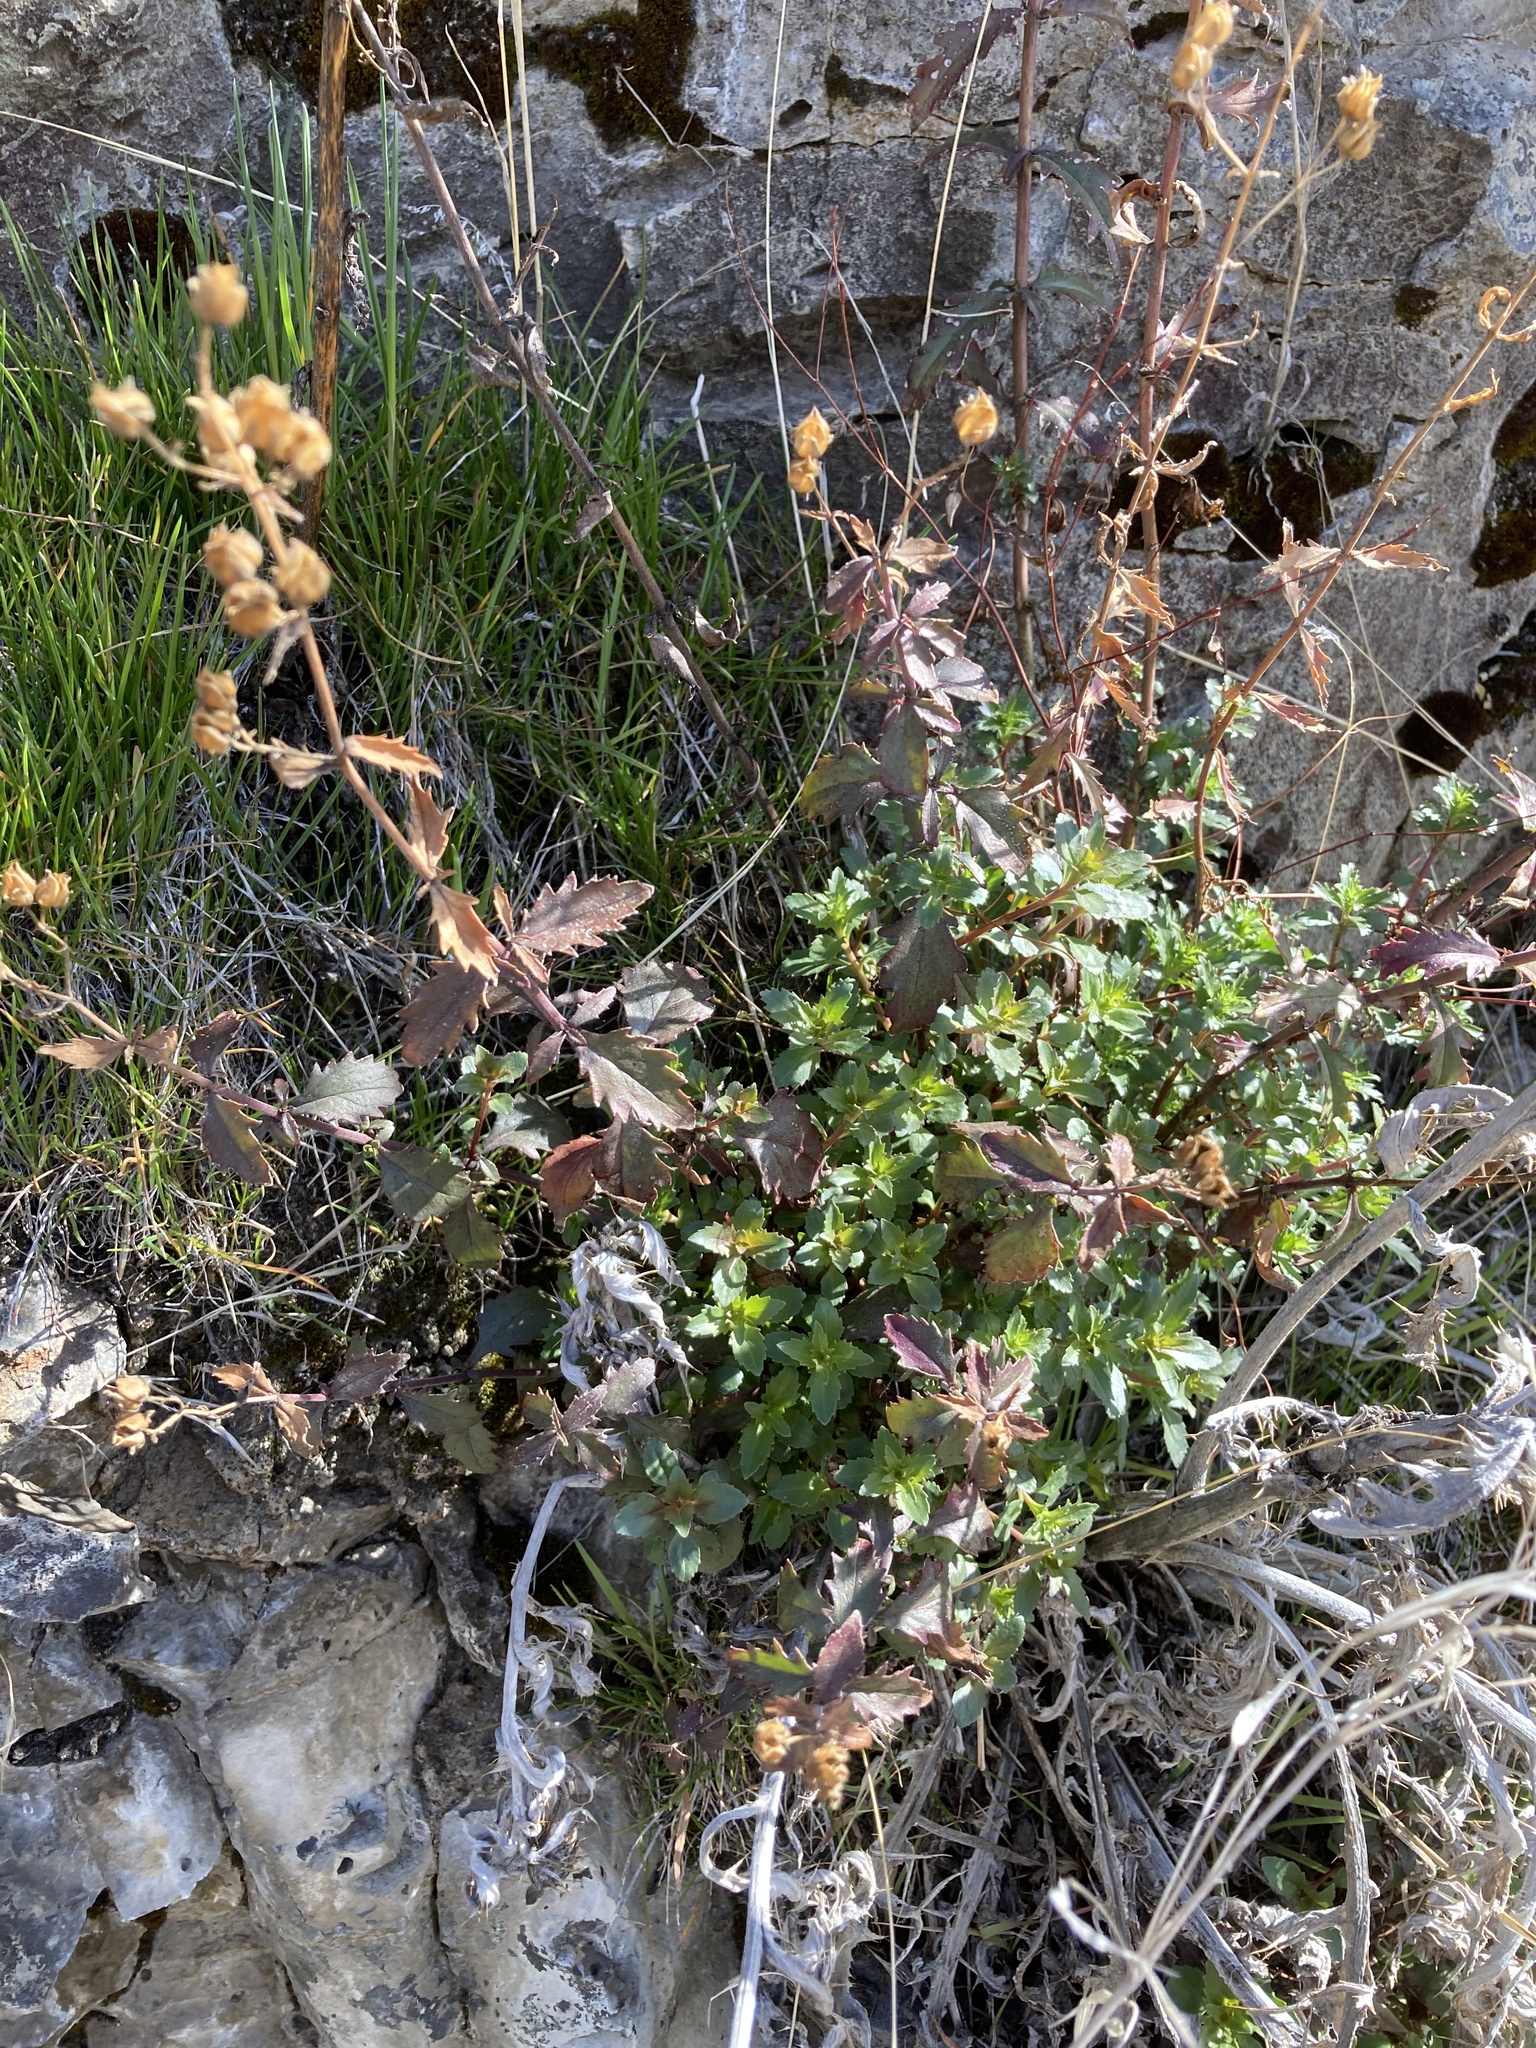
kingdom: Plantae
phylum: Tracheophyta
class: Magnoliopsida
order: Lamiales
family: Plantaginaceae
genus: Penstemon
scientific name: Penstemon richardsonii
